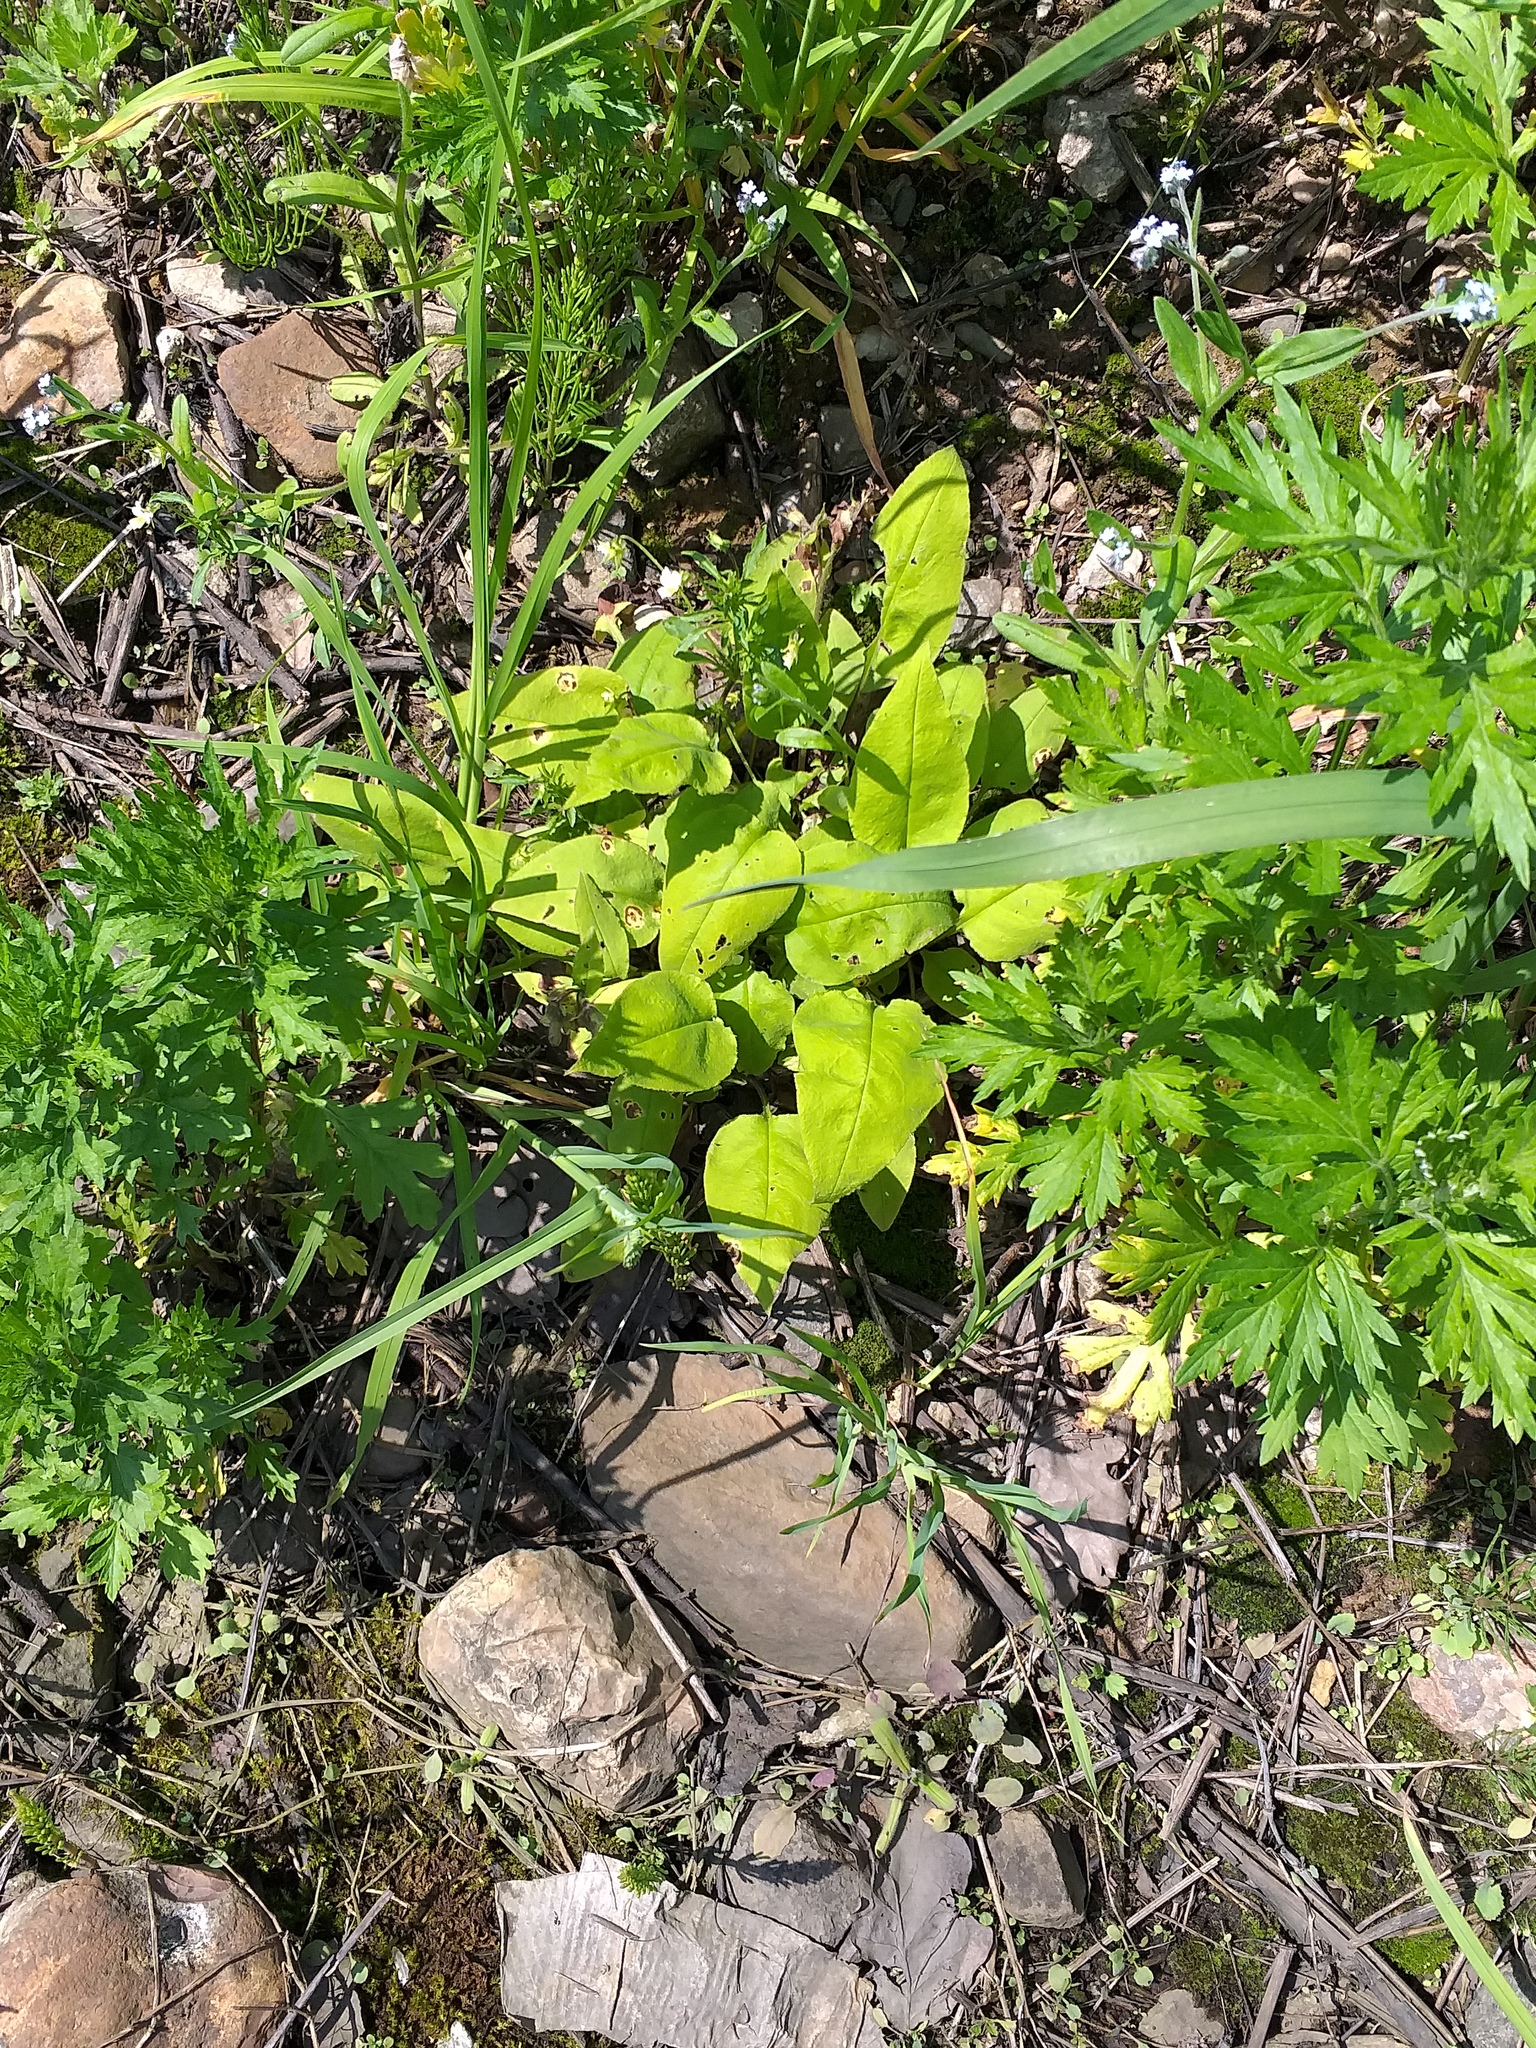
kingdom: Plantae
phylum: Tracheophyta
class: Magnoliopsida
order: Boraginales
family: Boraginaceae
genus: Pulmonaria
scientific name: Pulmonaria obscura
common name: Suffolk lungwort
